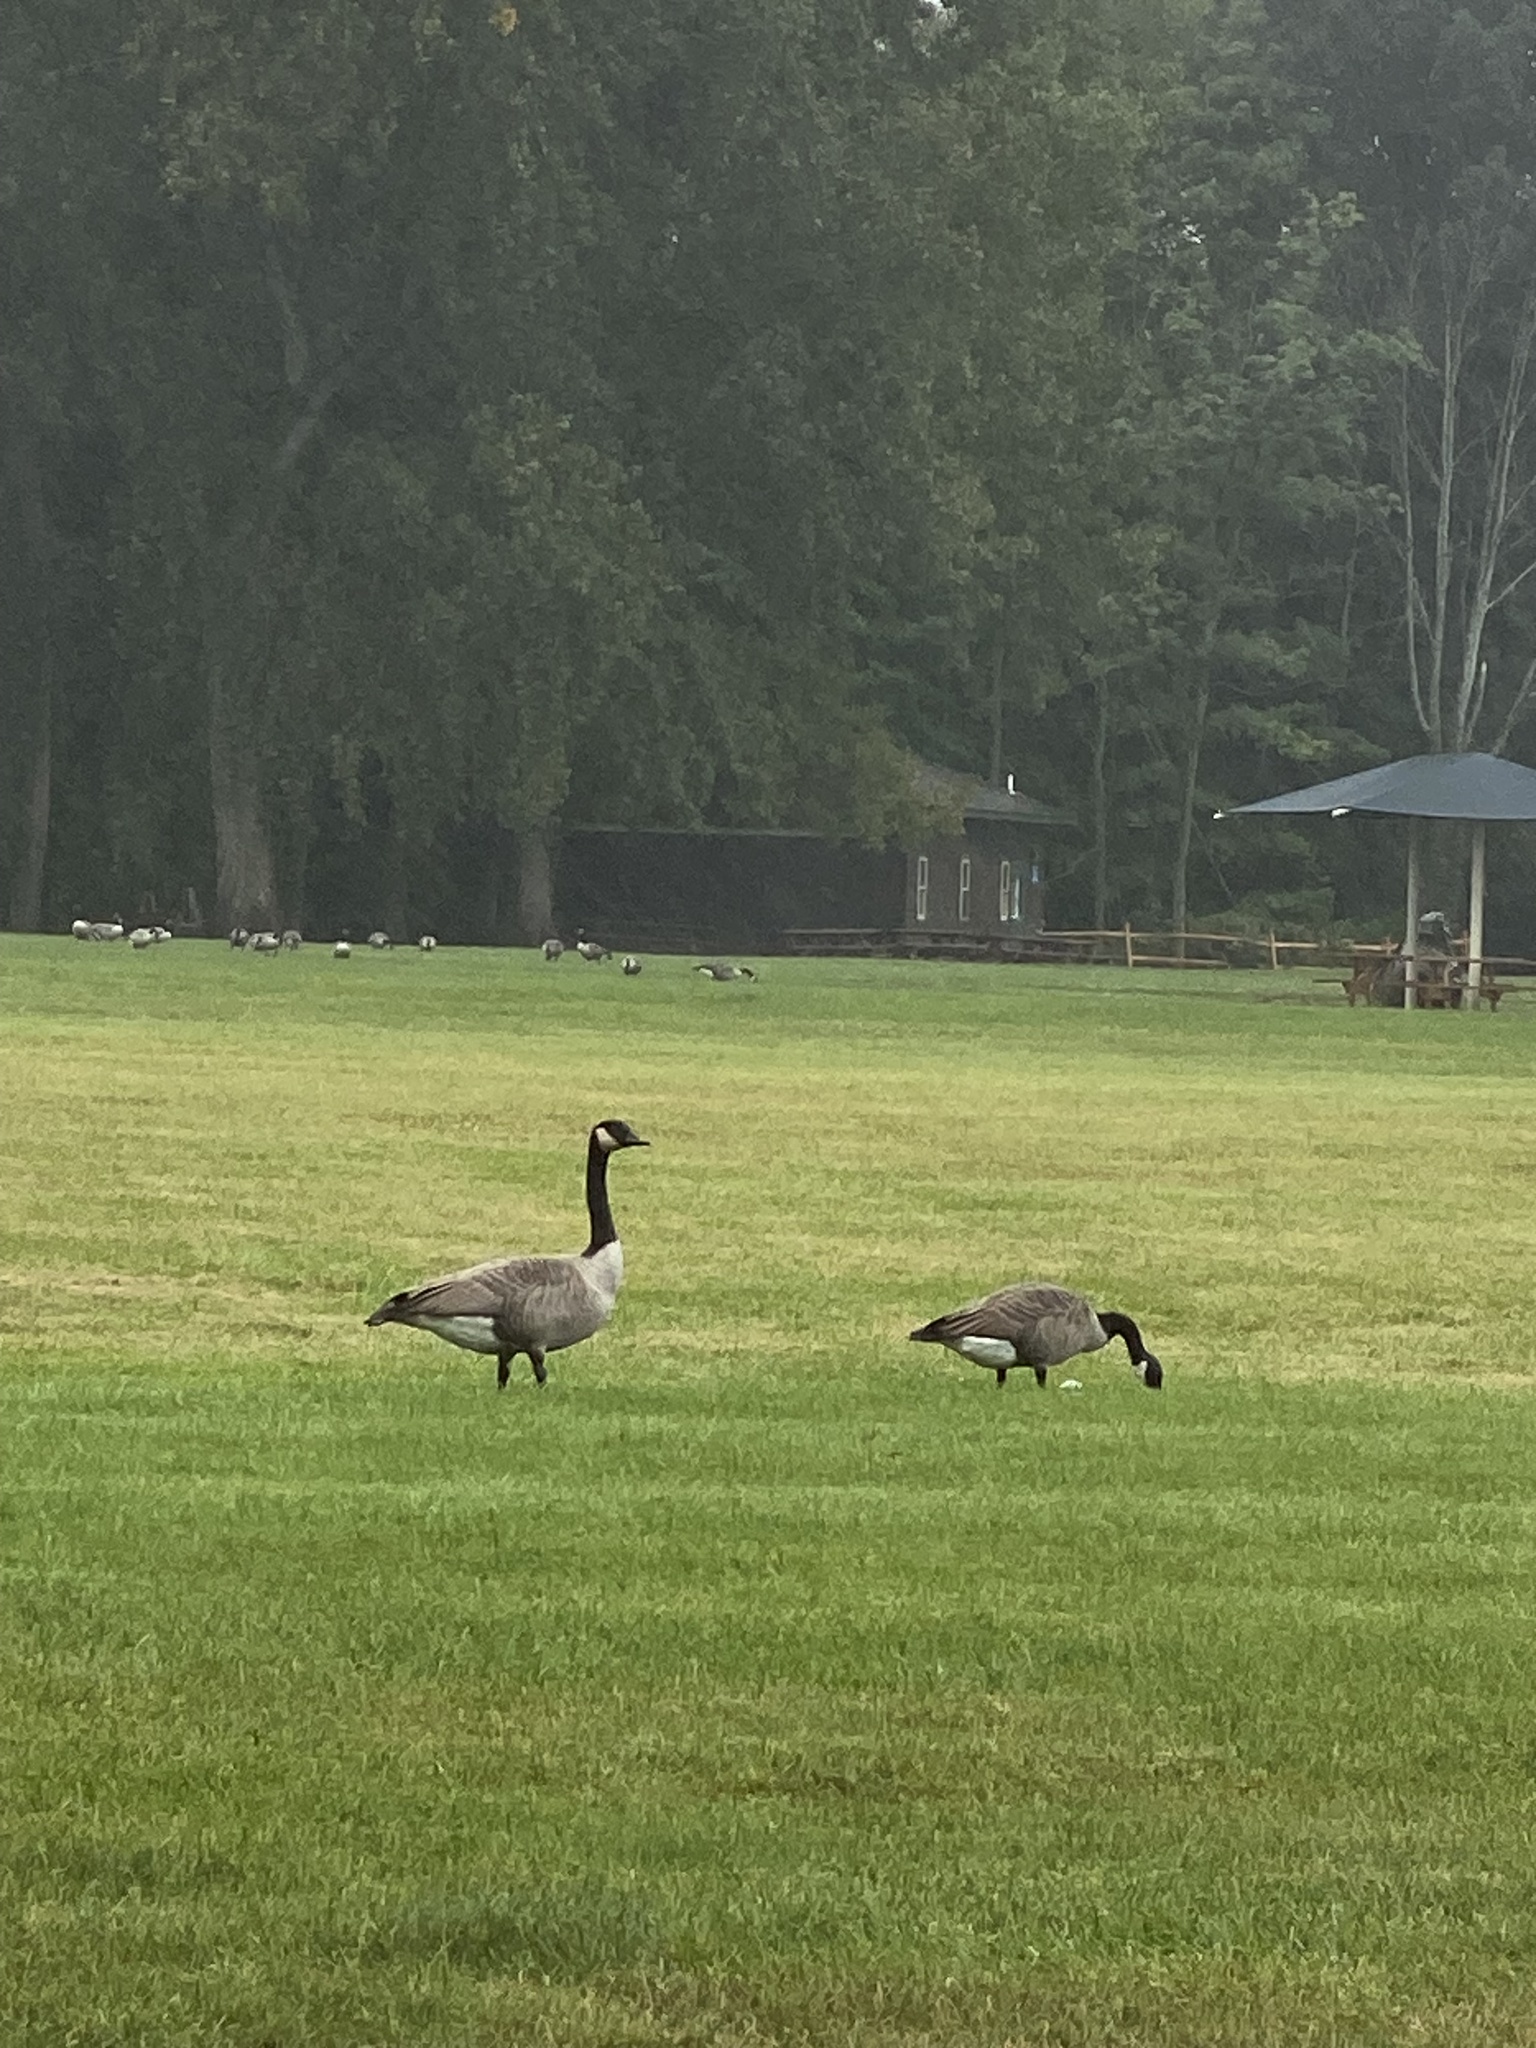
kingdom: Animalia
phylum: Chordata
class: Aves
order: Anseriformes
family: Anatidae
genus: Branta
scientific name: Branta canadensis
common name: Canada goose
